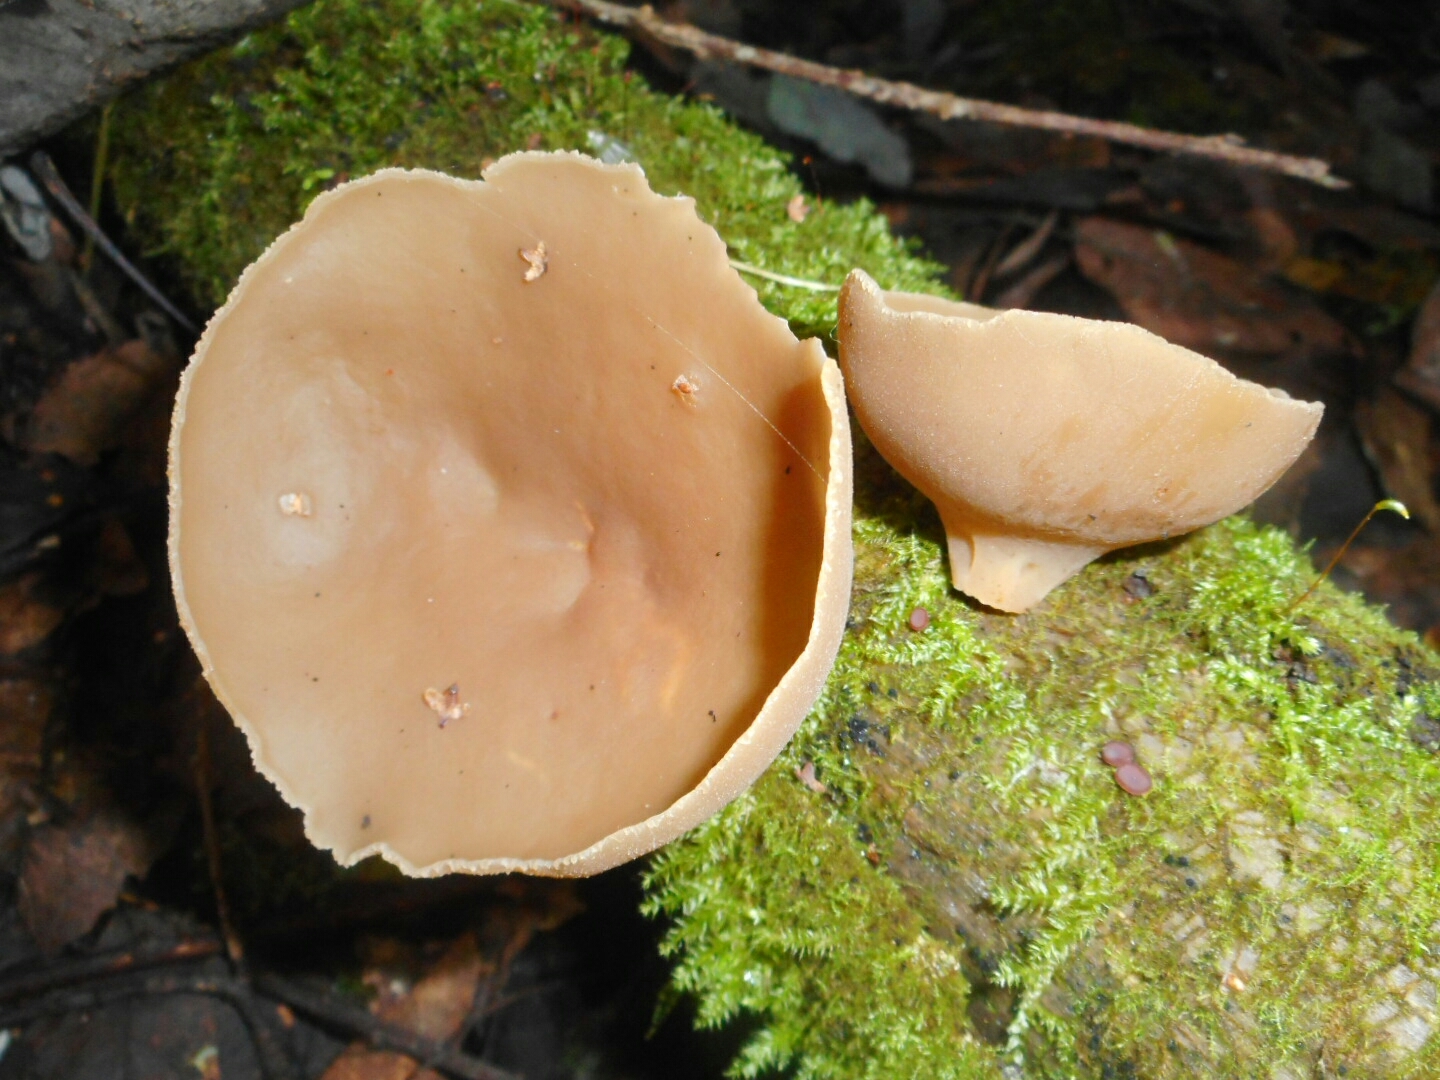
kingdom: Fungi
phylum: Ascomycota
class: Pezizomycetes
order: Pezizales
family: Pezizaceae
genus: Peziza
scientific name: Peziza varia
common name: Layered cup
